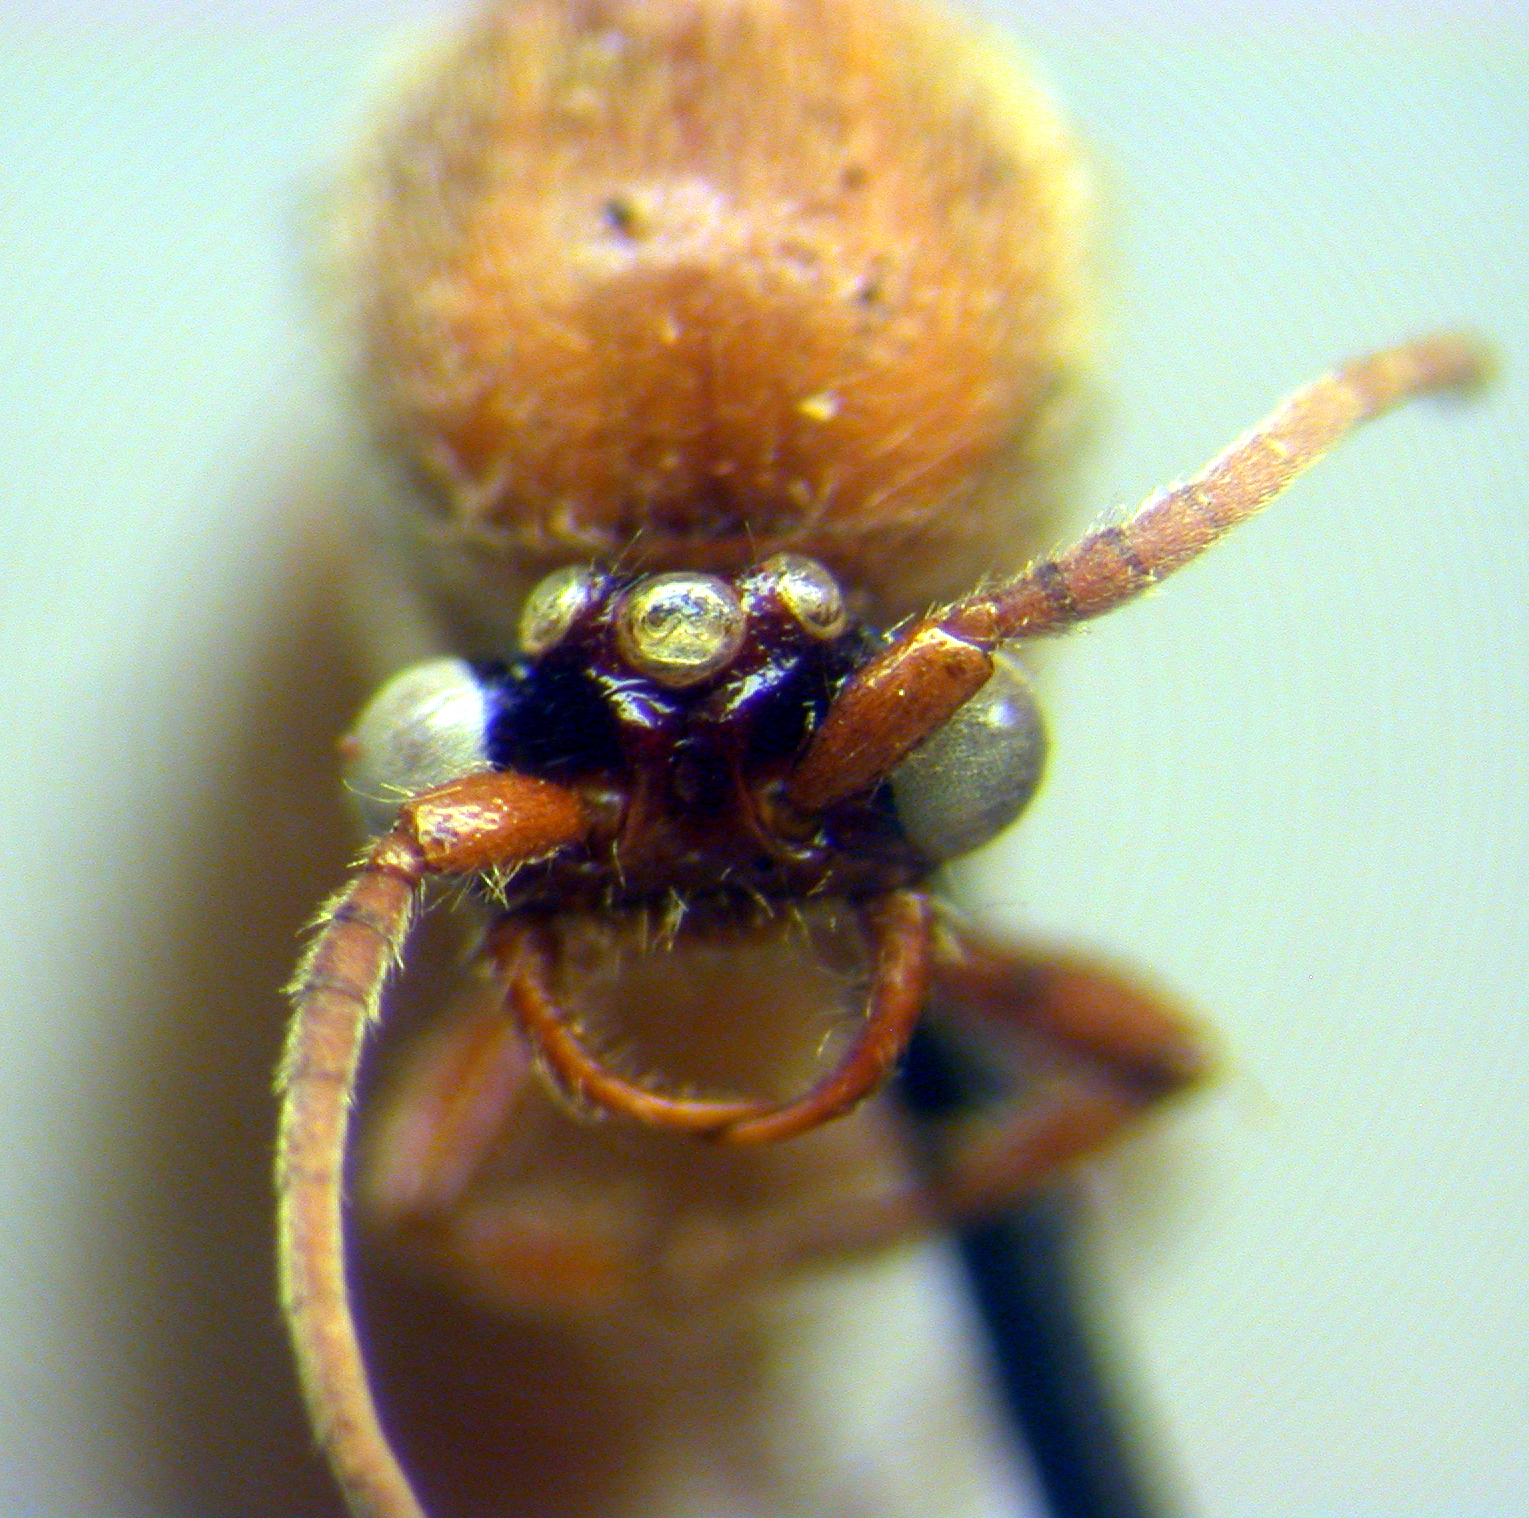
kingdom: Animalia
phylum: Arthropoda
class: Insecta
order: Hymenoptera
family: Formicidae
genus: Neivamyrmex
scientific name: Neivamyrmex shuckardi
